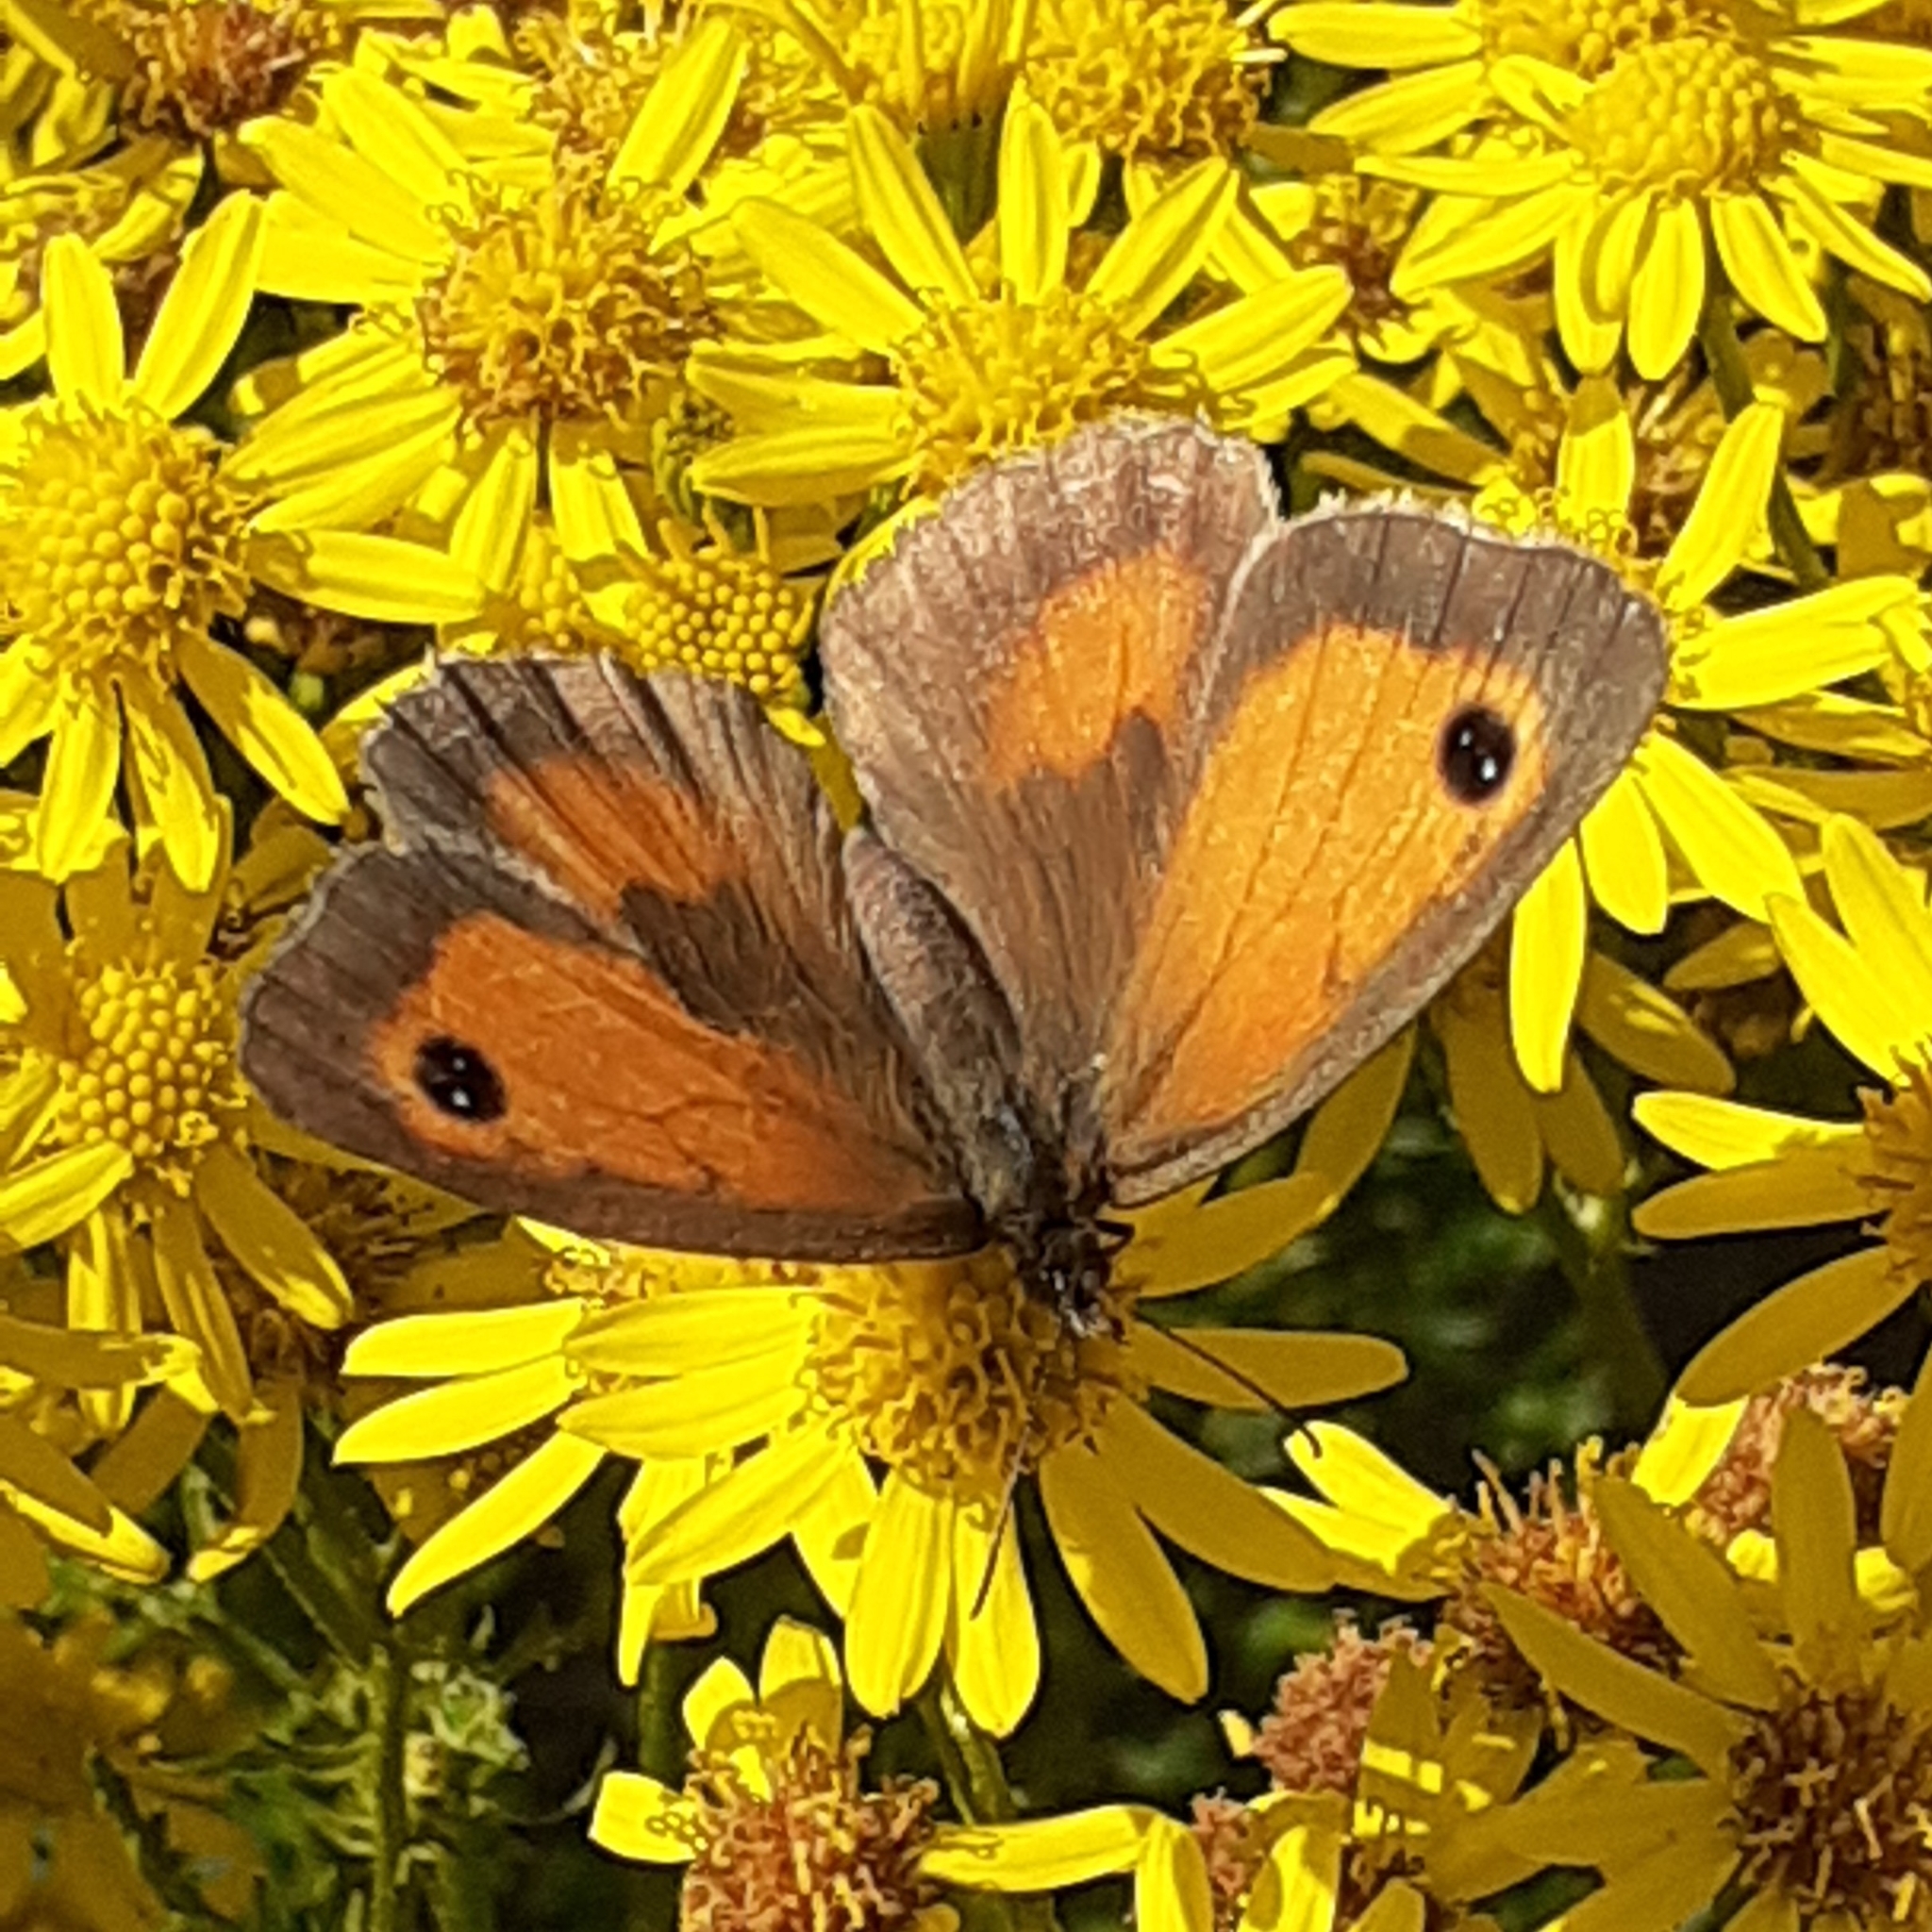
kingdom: Animalia
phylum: Arthropoda
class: Insecta
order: Lepidoptera
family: Nymphalidae
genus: Pyronia
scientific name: Pyronia tithonus
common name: Gatekeeper
